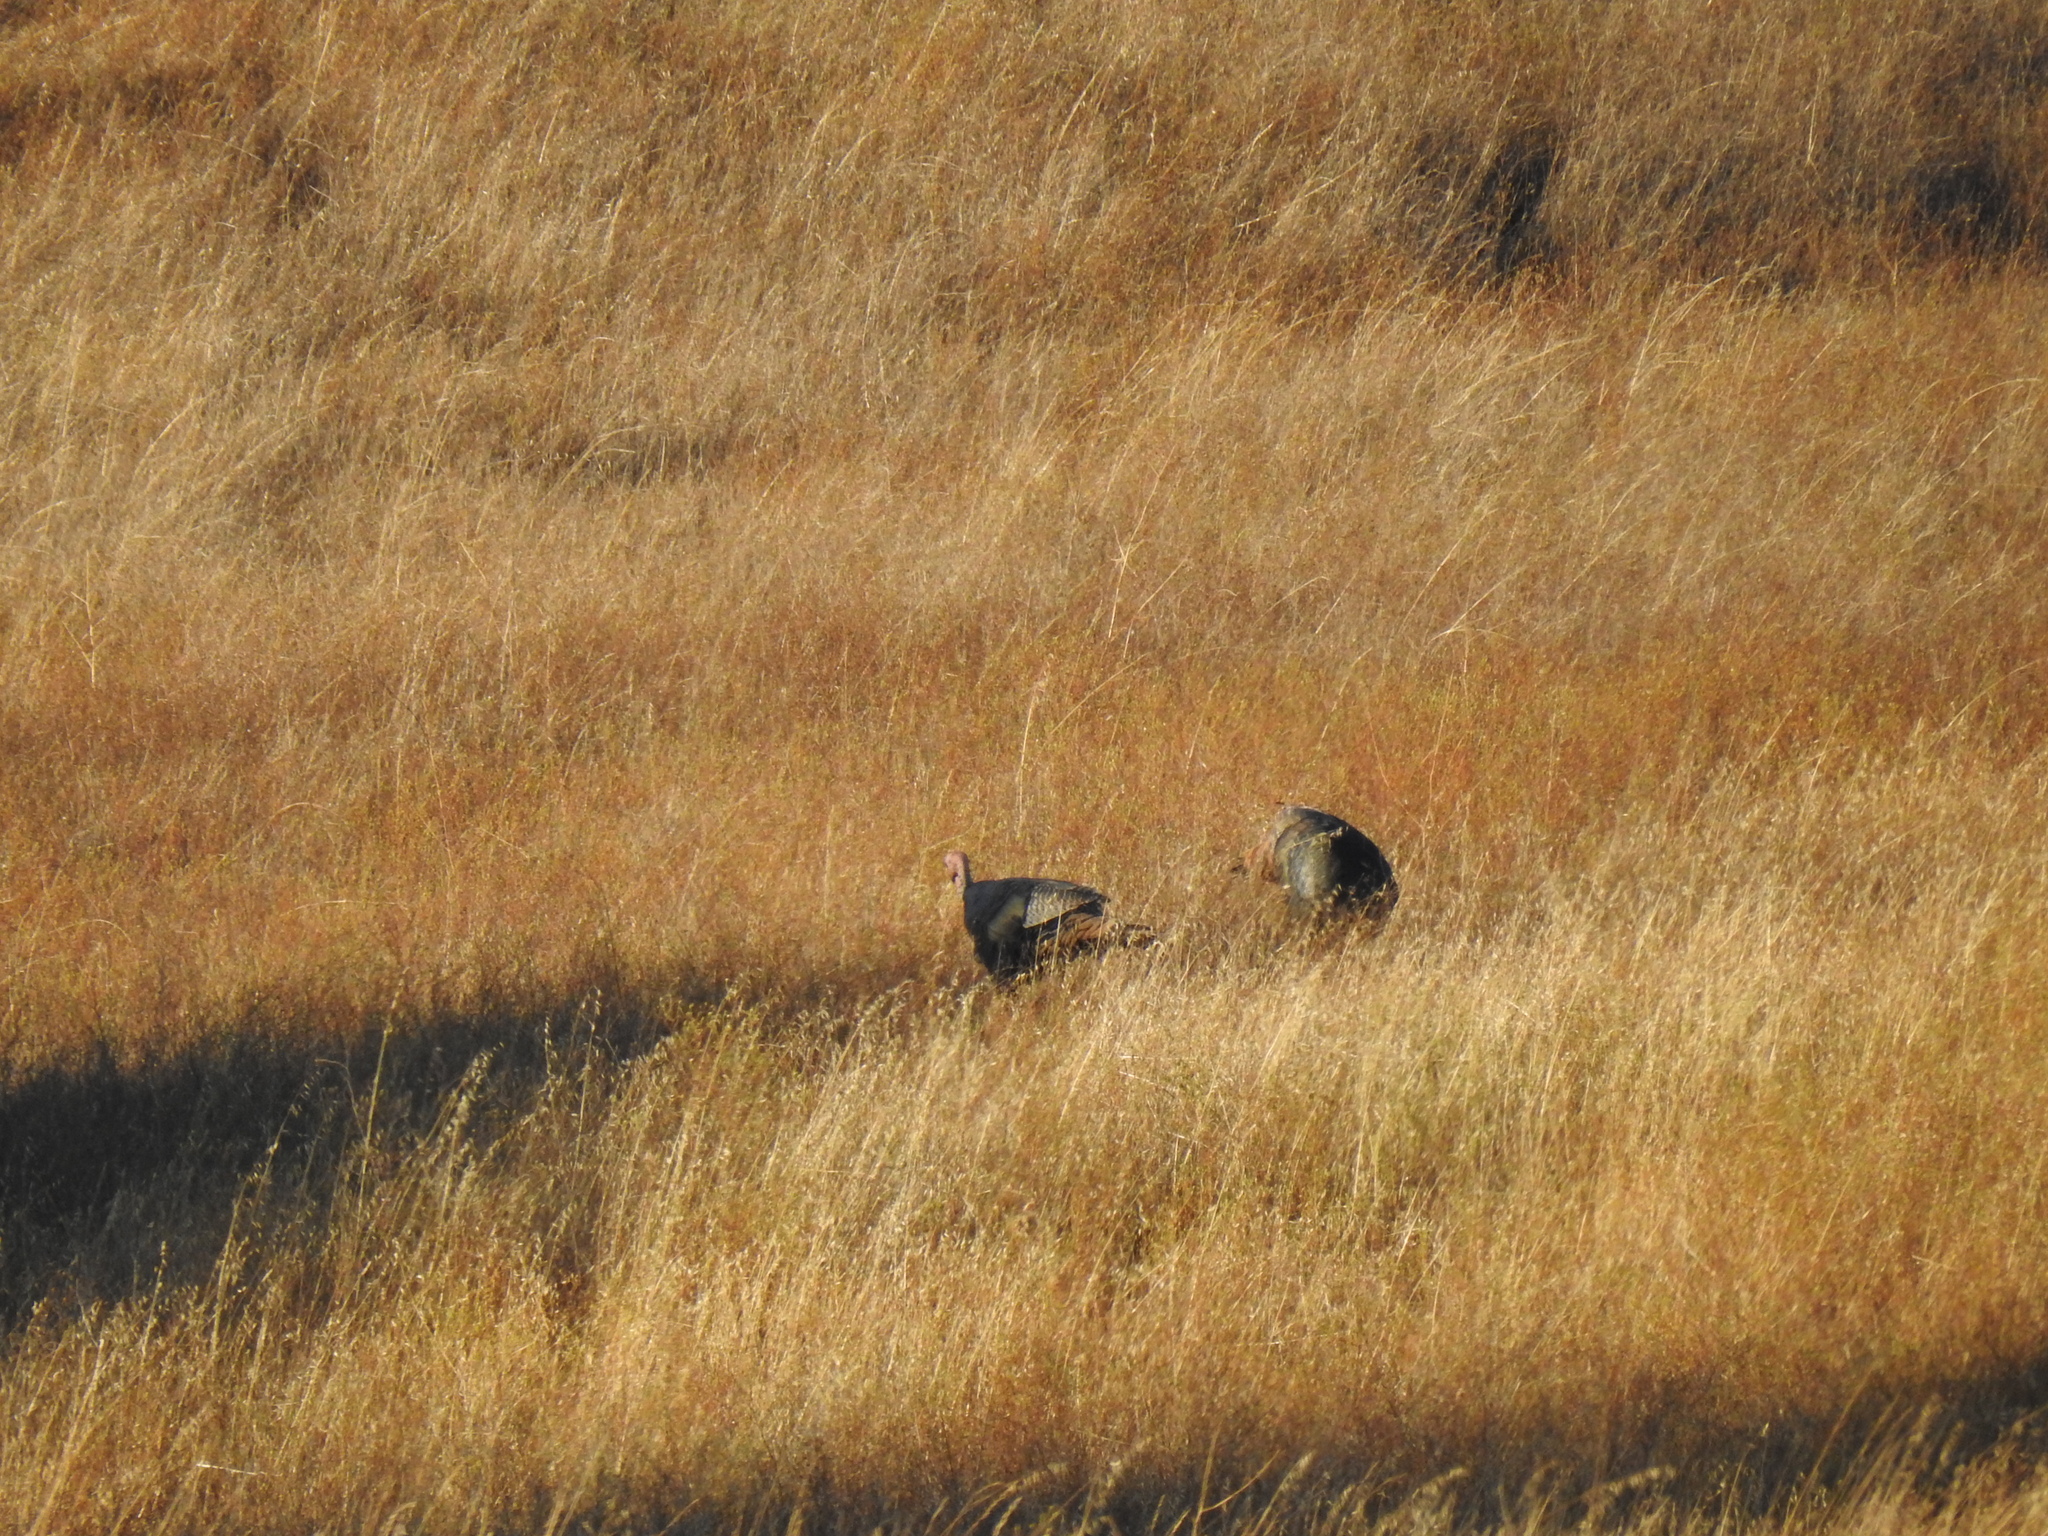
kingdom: Animalia
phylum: Chordata
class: Aves
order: Galliformes
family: Phasianidae
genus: Meleagris
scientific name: Meleagris gallopavo
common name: Wild turkey
